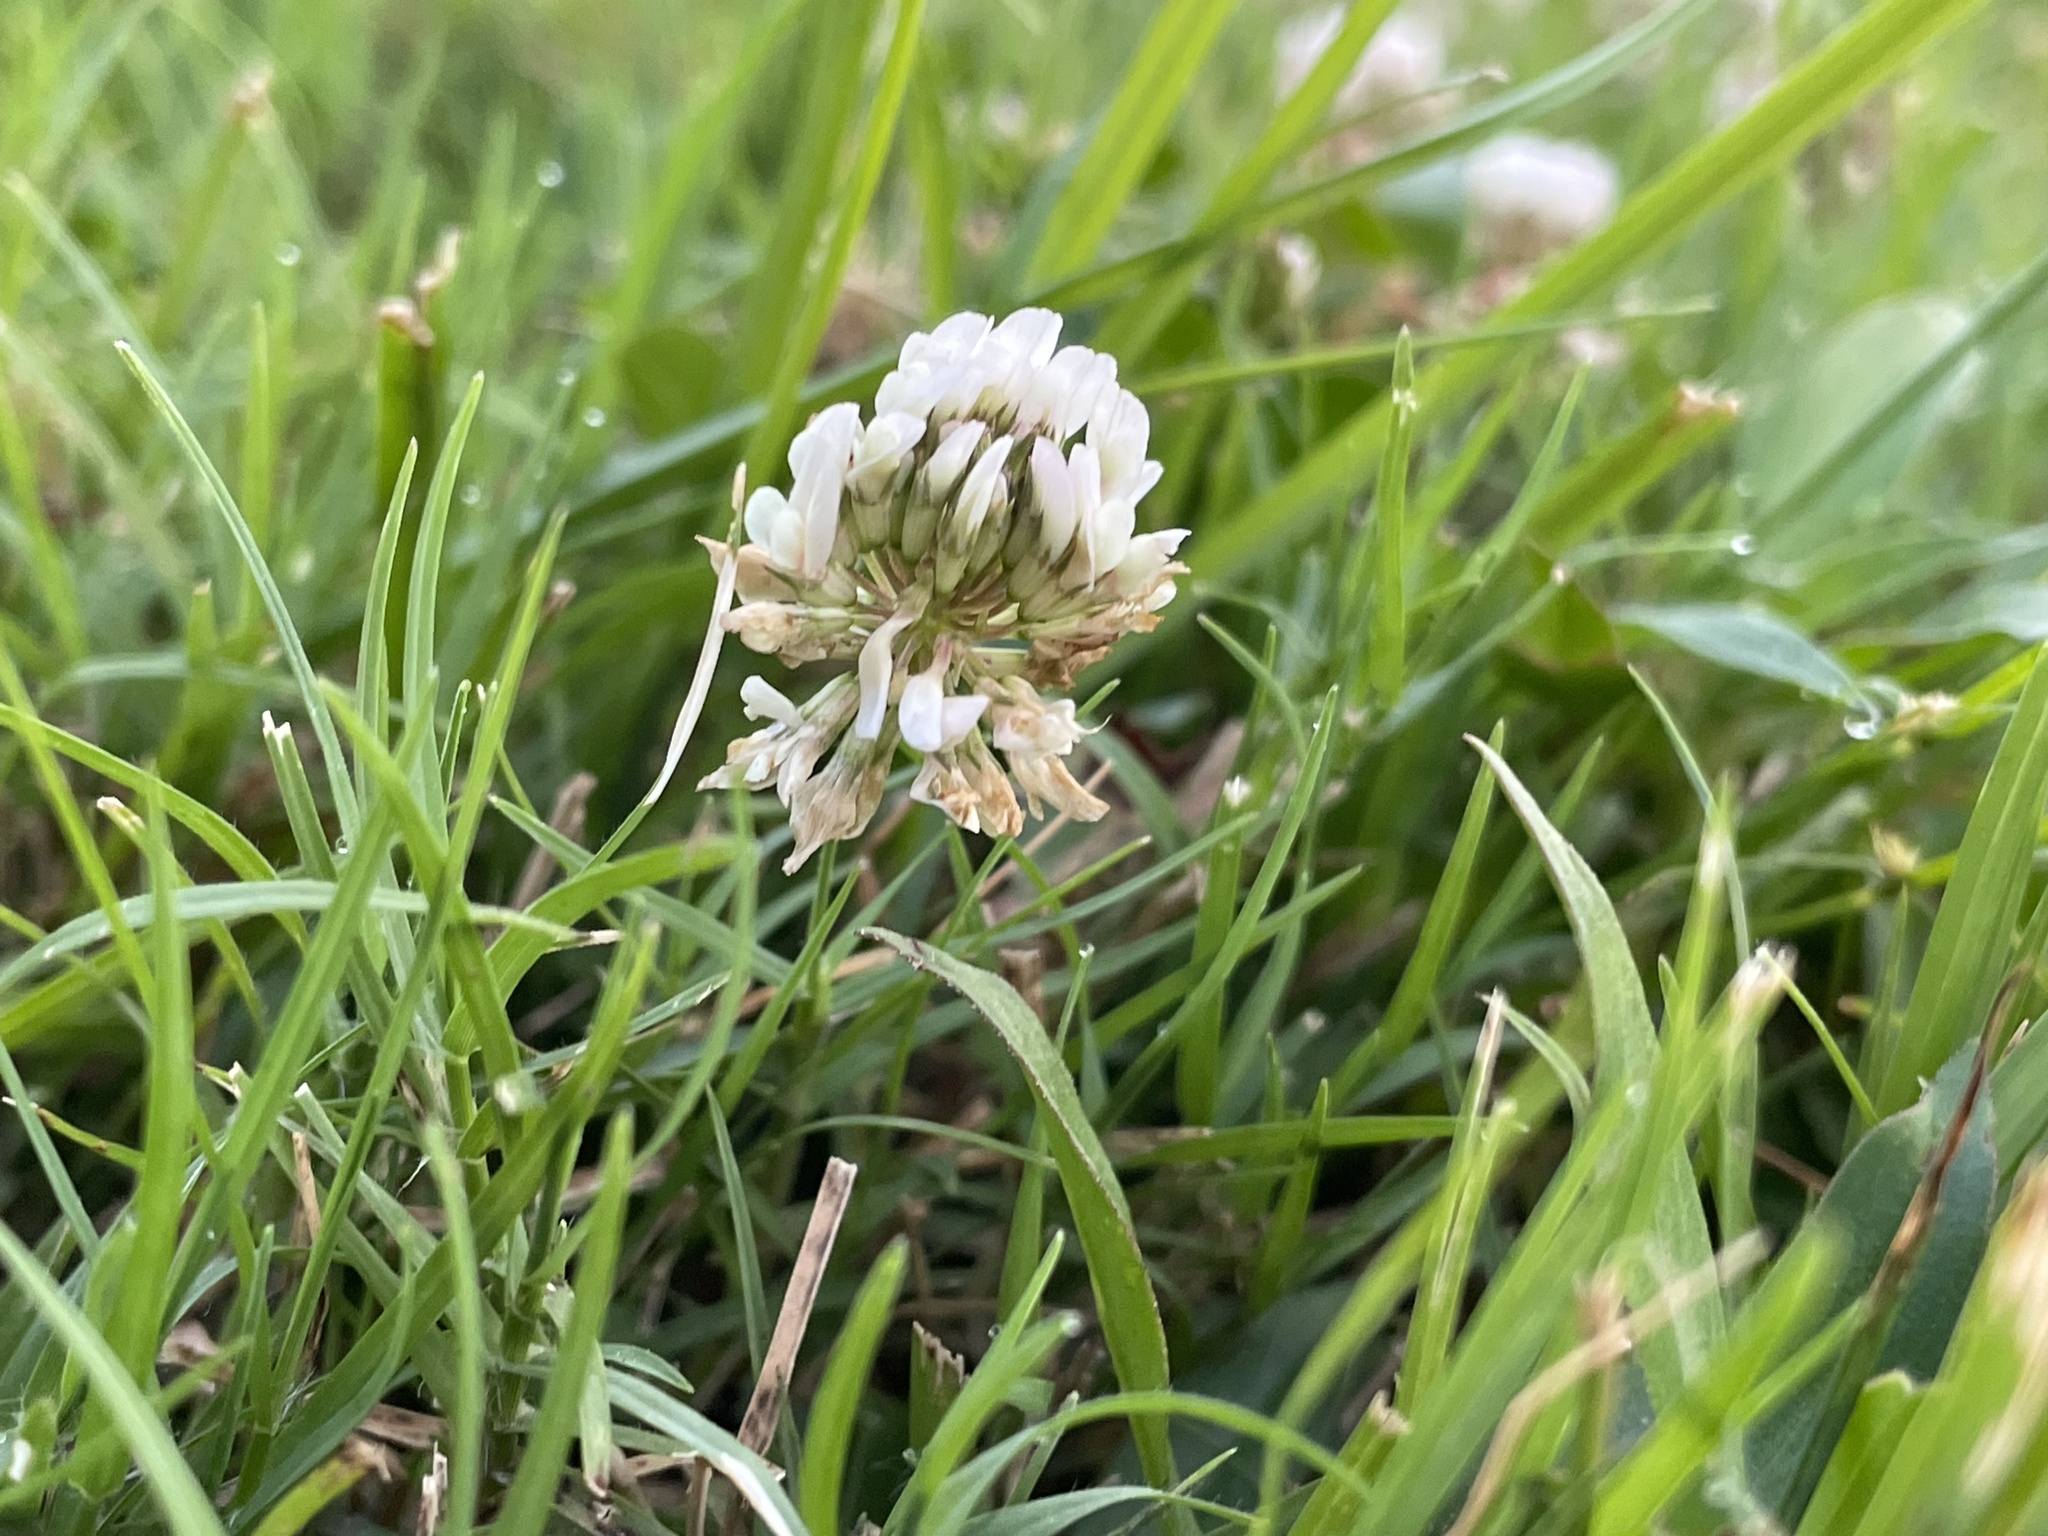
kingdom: Plantae
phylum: Tracheophyta
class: Magnoliopsida
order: Fabales
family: Fabaceae
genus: Trifolium
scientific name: Trifolium repens
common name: White clover
